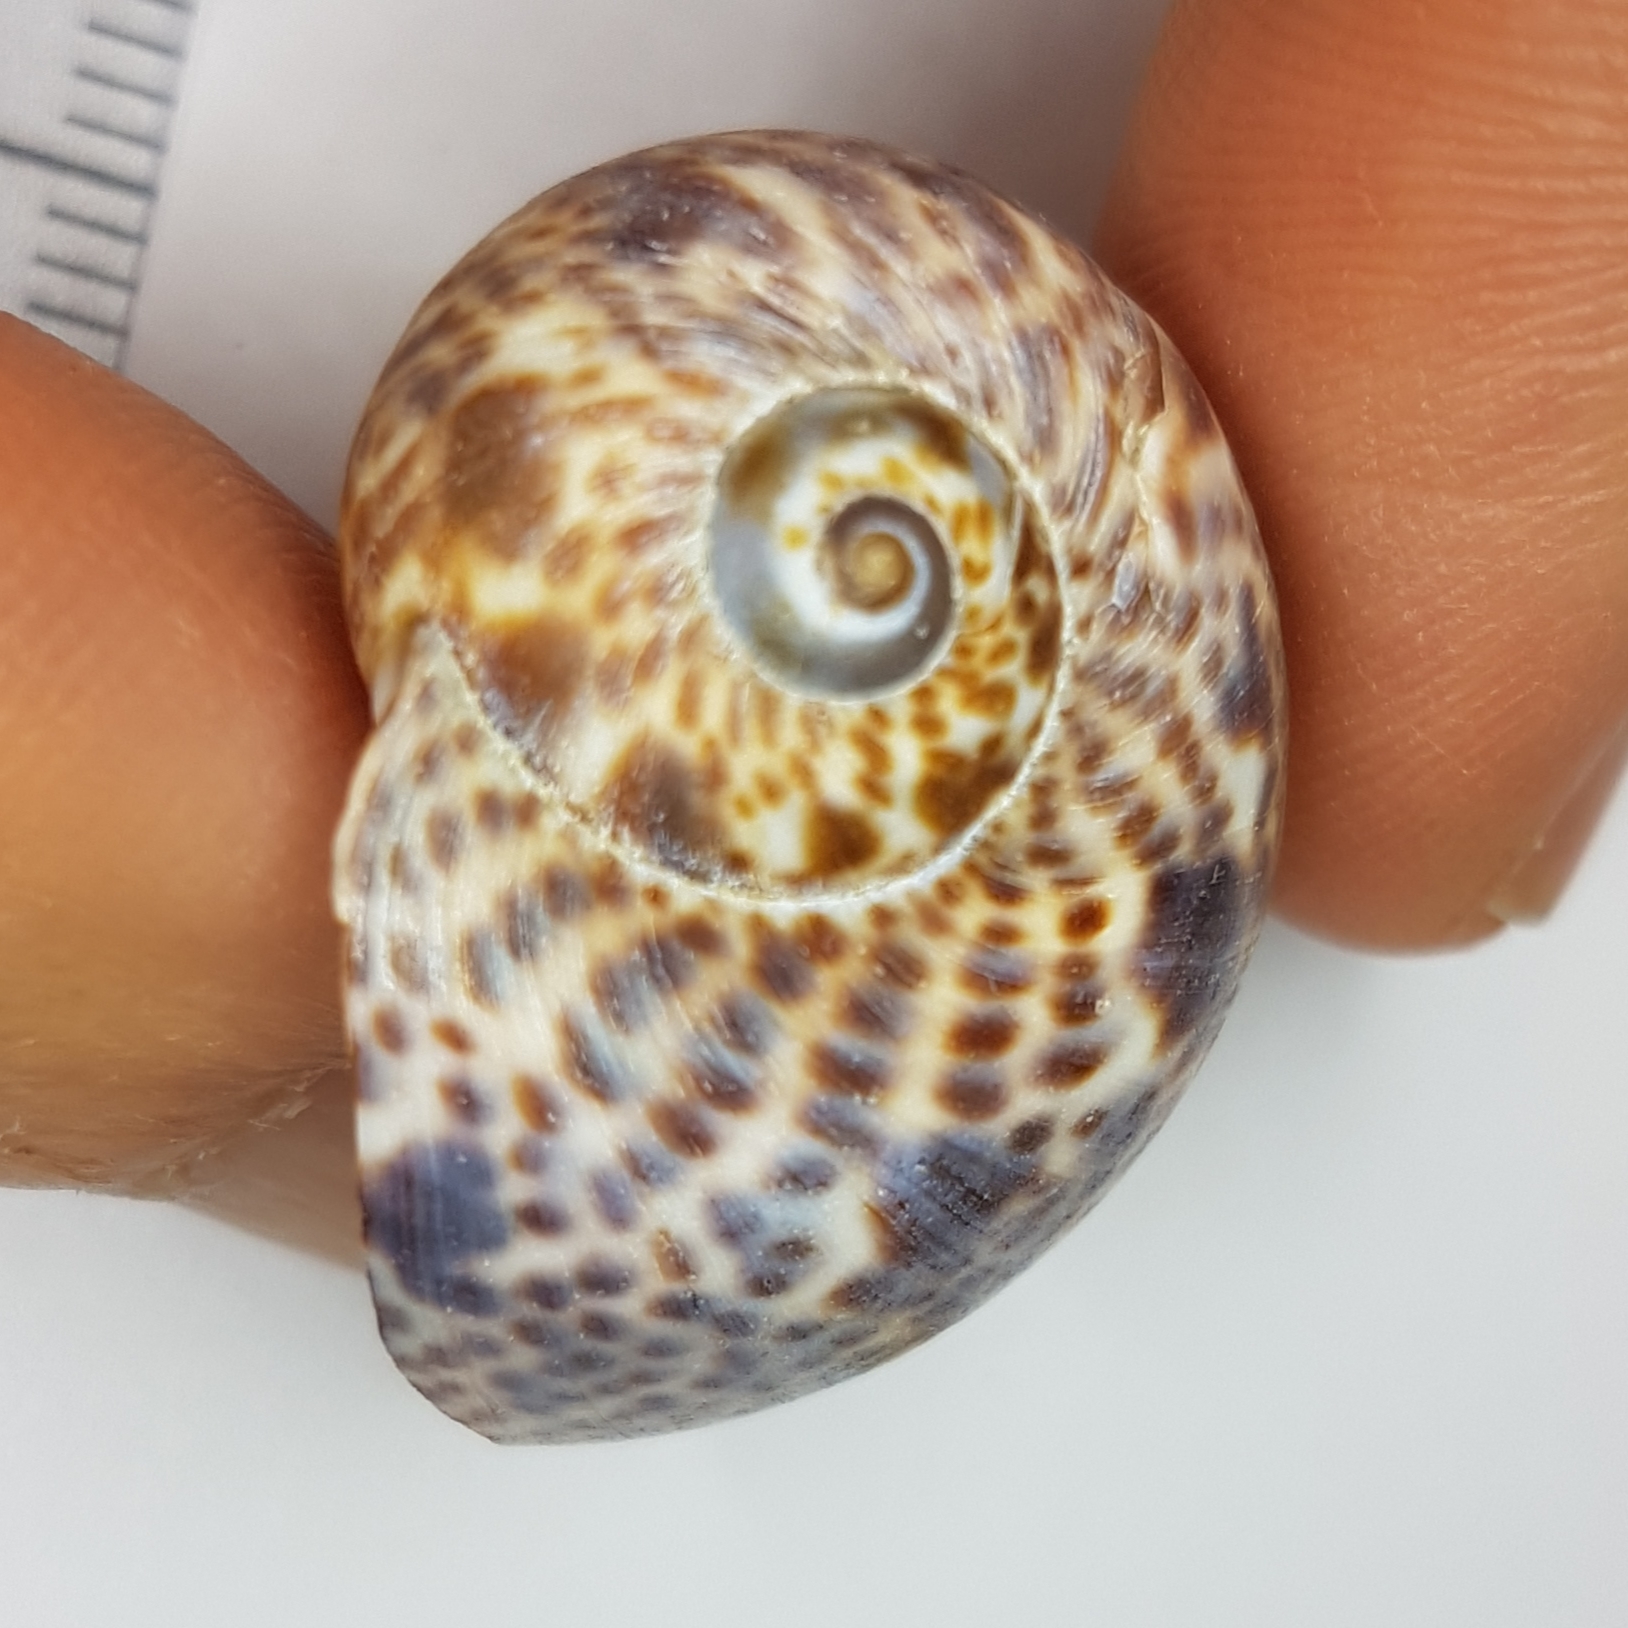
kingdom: Animalia
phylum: Mollusca
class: Gastropoda
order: Littorinimorpha
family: Naticidae
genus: Naticarius
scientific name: Naticarius hebraeus
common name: Hebrew moon shell
